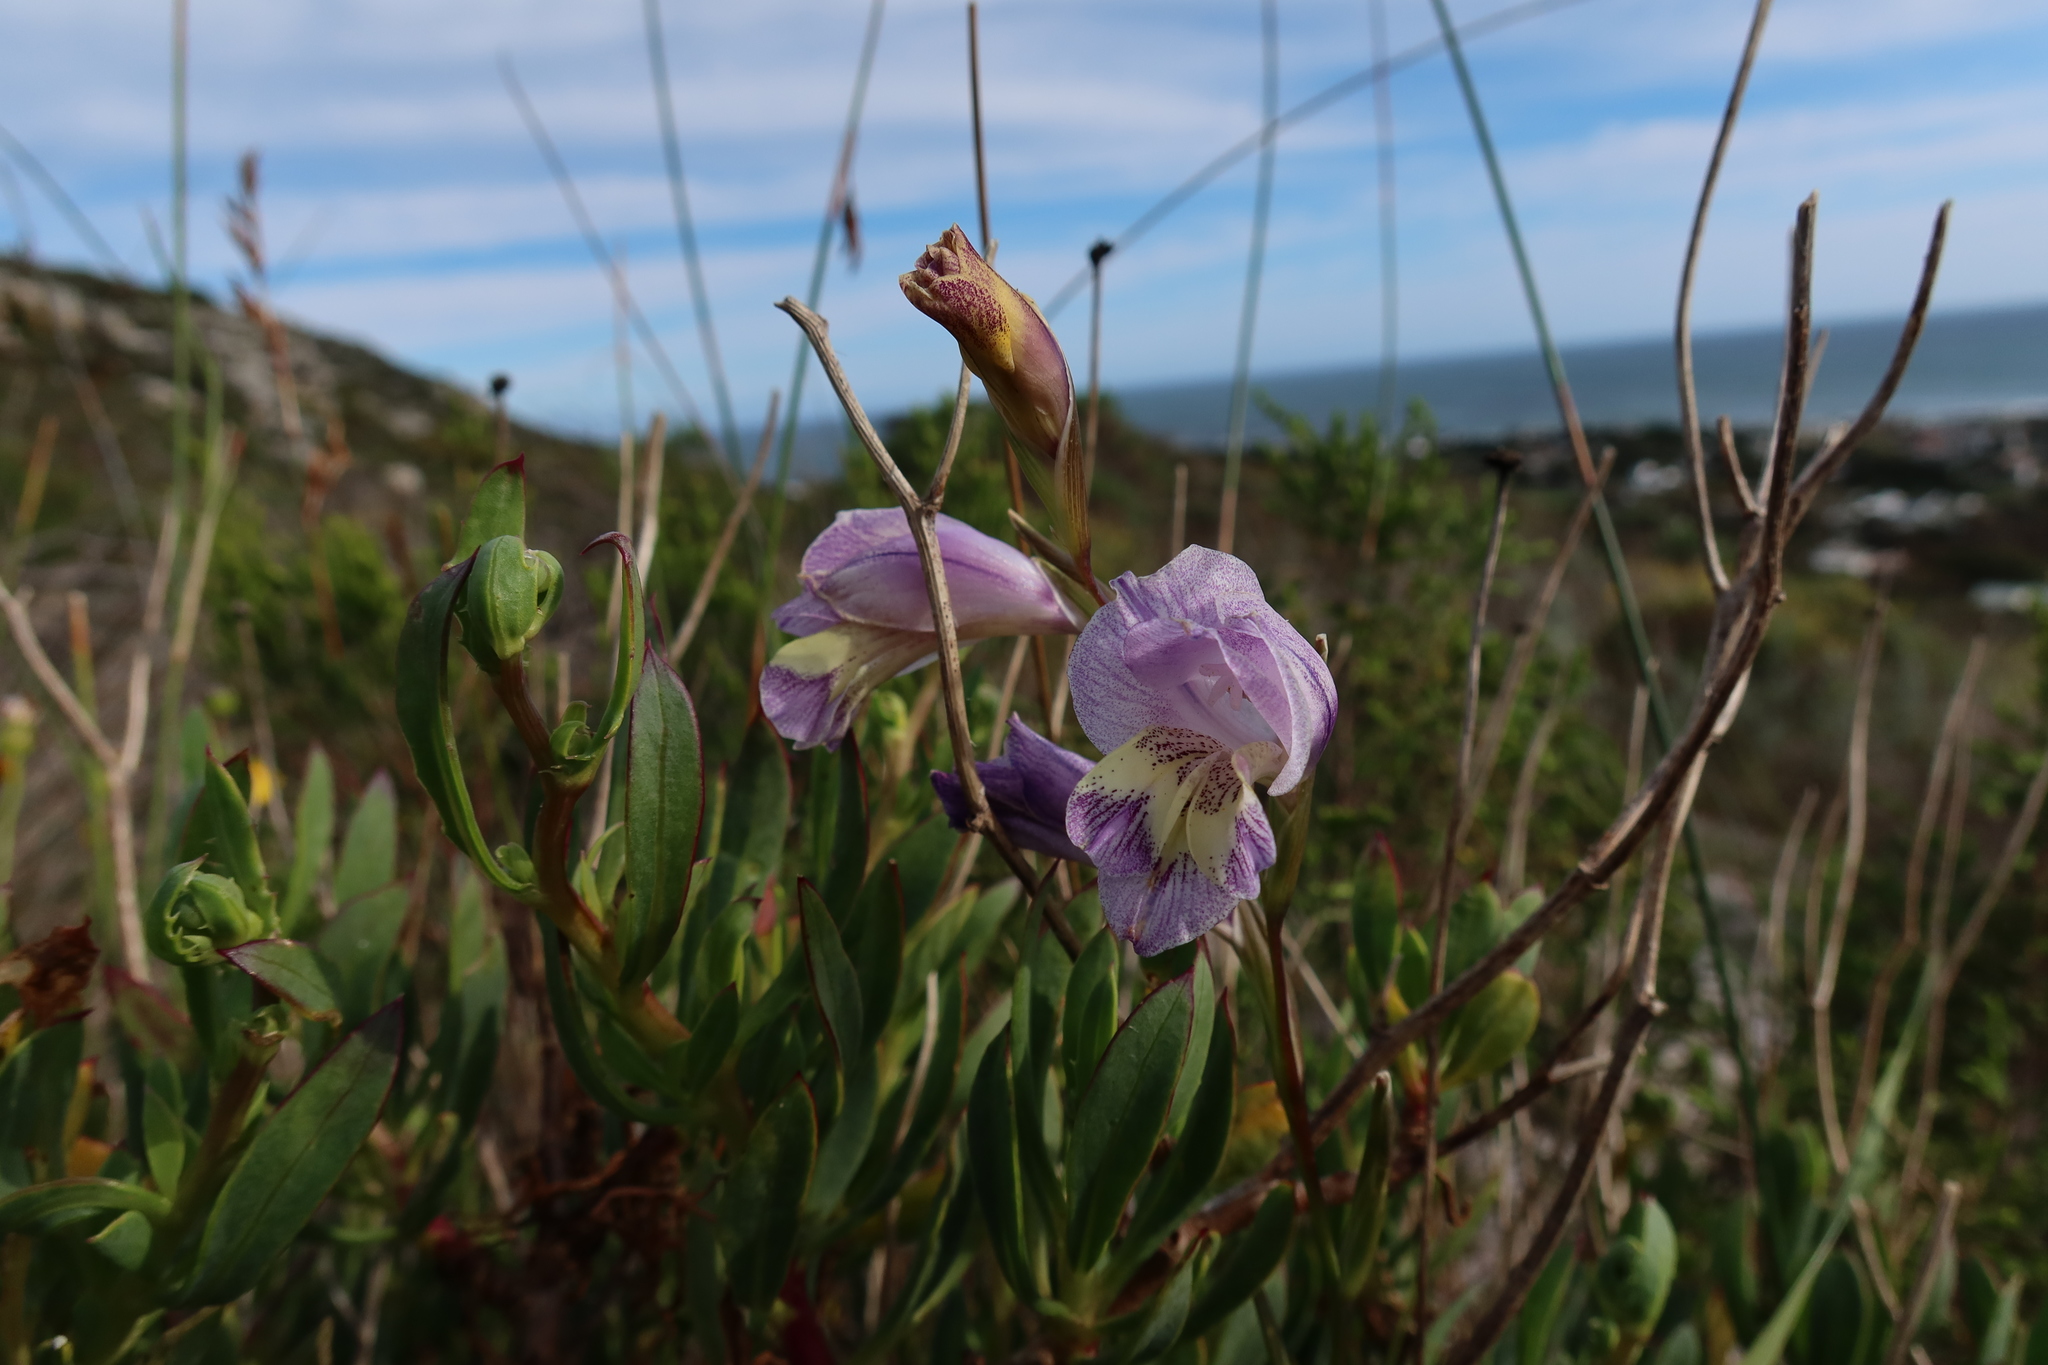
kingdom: Plantae
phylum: Tracheophyta
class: Liliopsida
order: Asparagales
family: Iridaceae
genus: Gladiolus
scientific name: Gladiolus carinatus
